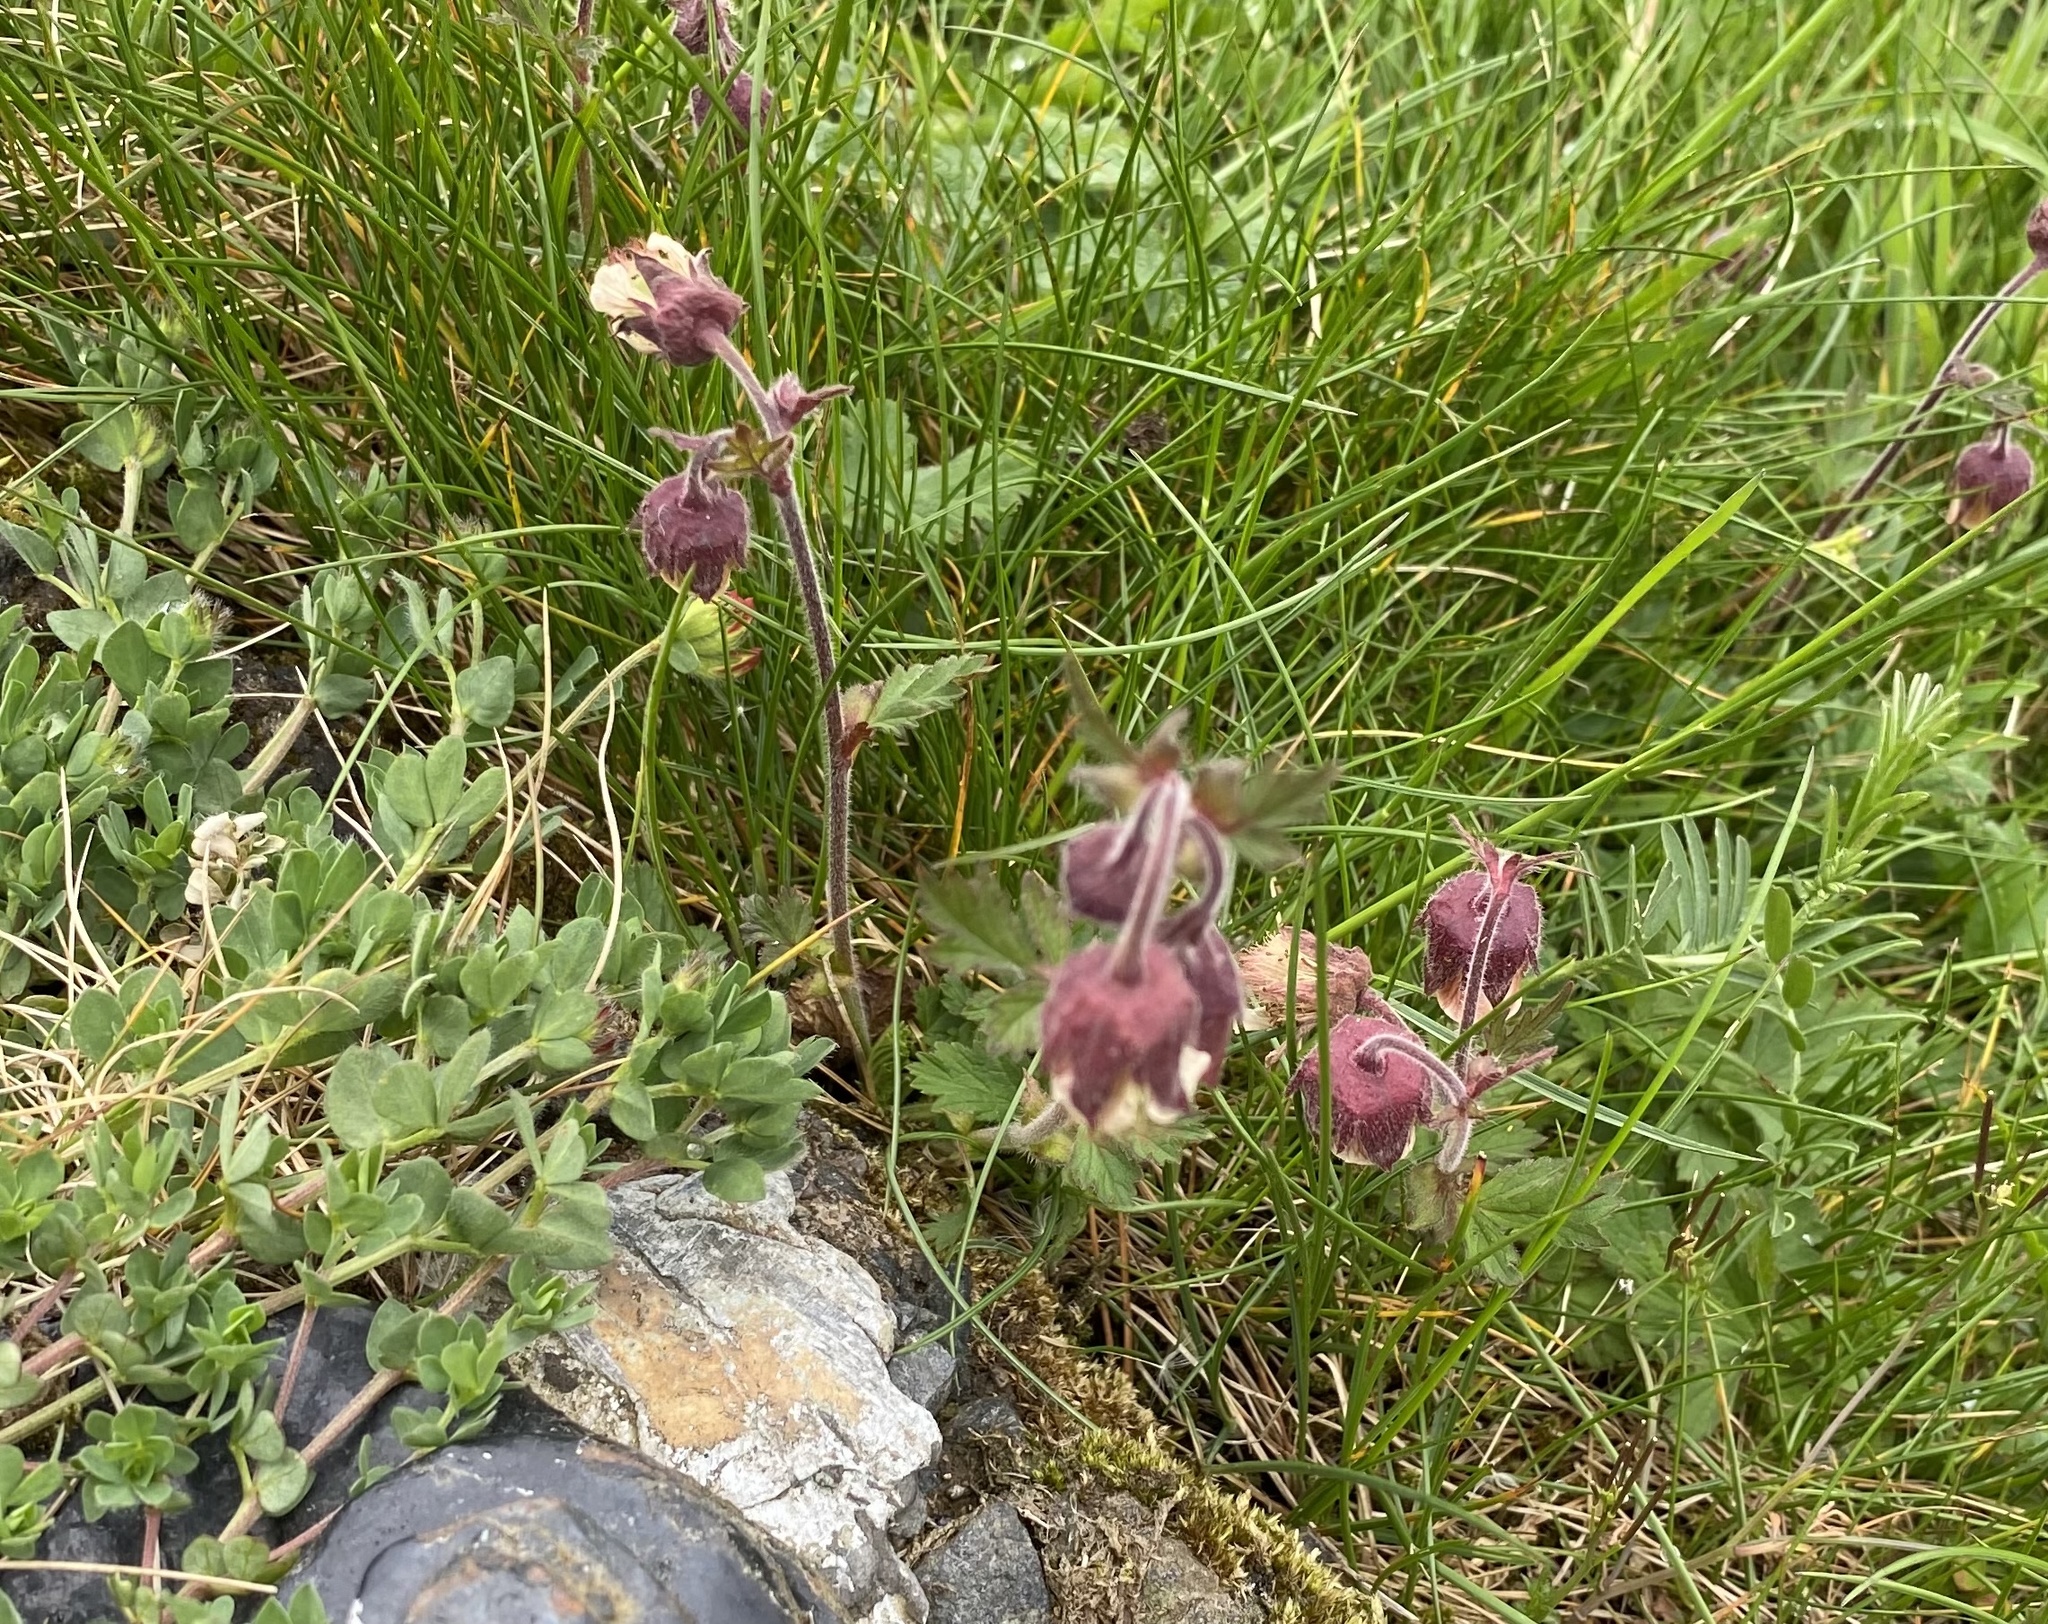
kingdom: Plantae
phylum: Tracheophyta
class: Magnoliopsida
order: Rosales
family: Rosaceae
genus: Geum
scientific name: Geum rivale
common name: Water avens
